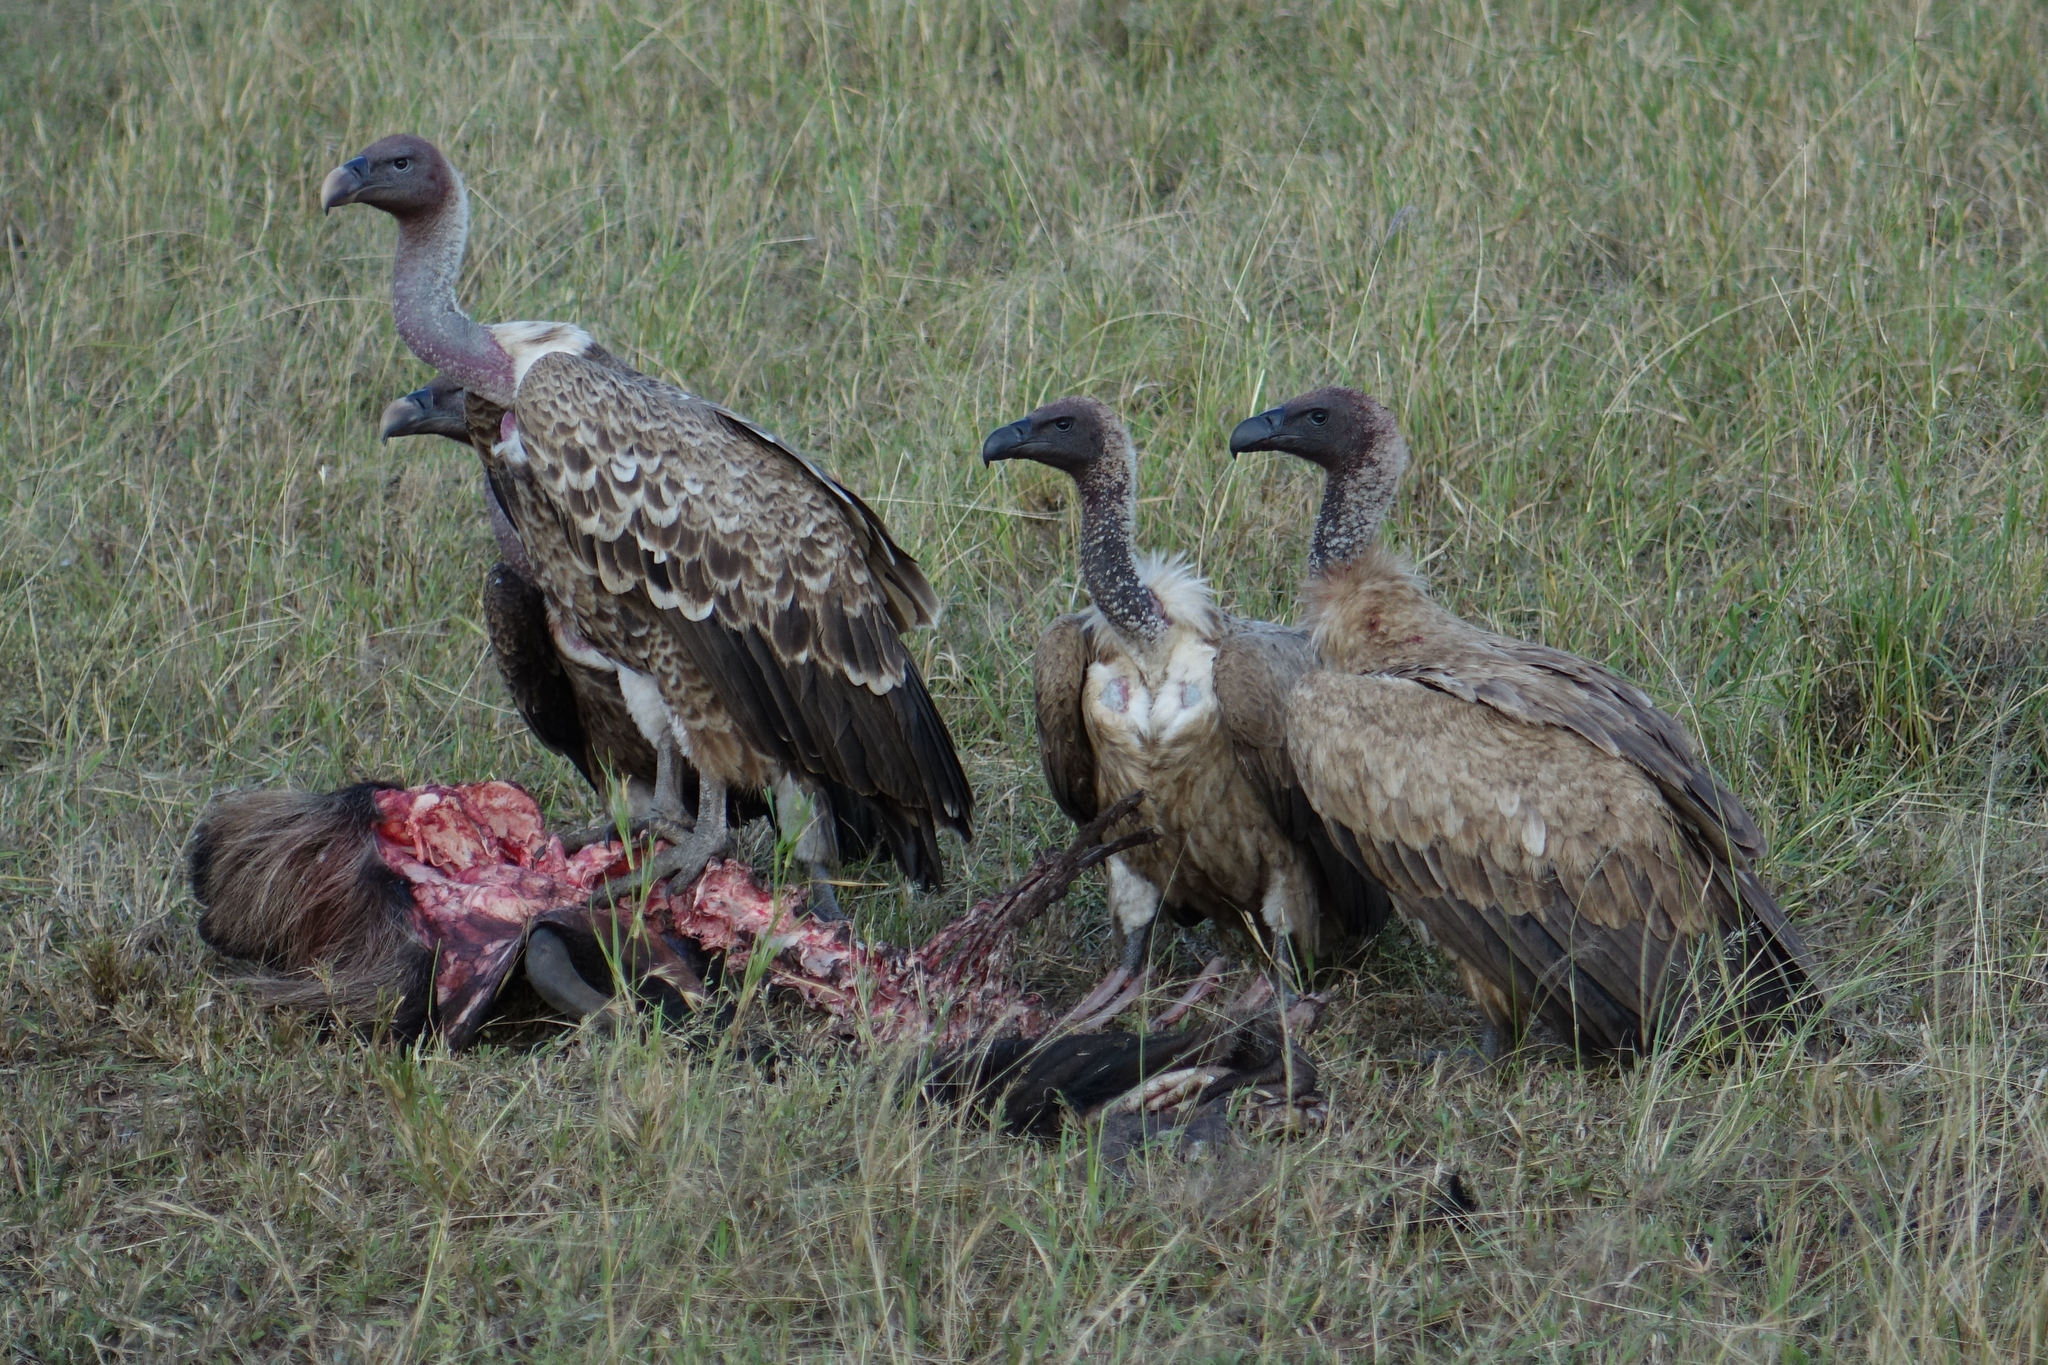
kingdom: Animalia
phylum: Chordata
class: Aves
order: Accipitriformes
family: Accipitridae
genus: Gyps
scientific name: Gyps africanus
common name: White-backed vulture
